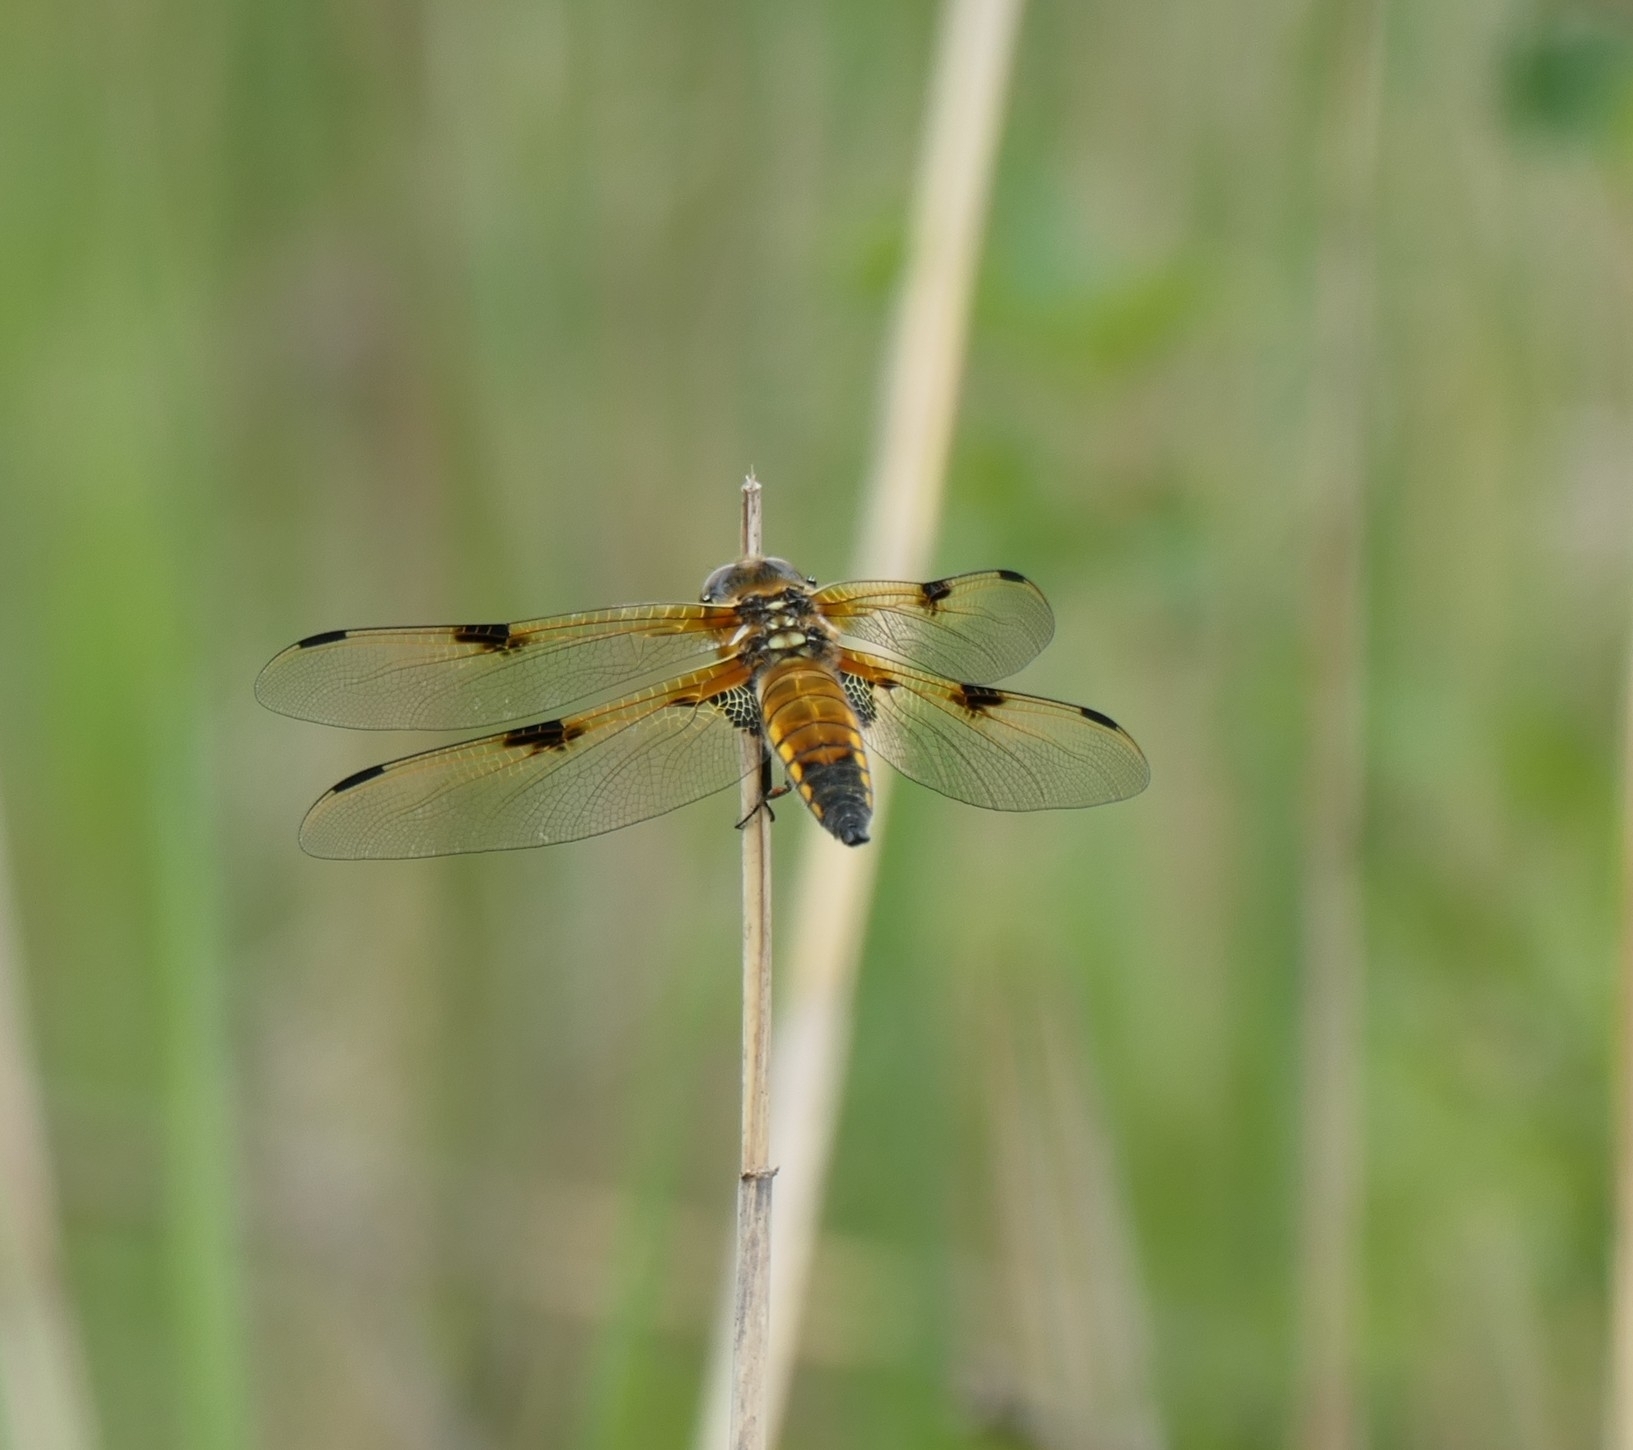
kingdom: Animalia
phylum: Arthropoda
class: Insecta
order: Odonata
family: Libellulidae
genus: Libellula
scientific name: Libellula quadrimaculata
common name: Four-spotted chaser
